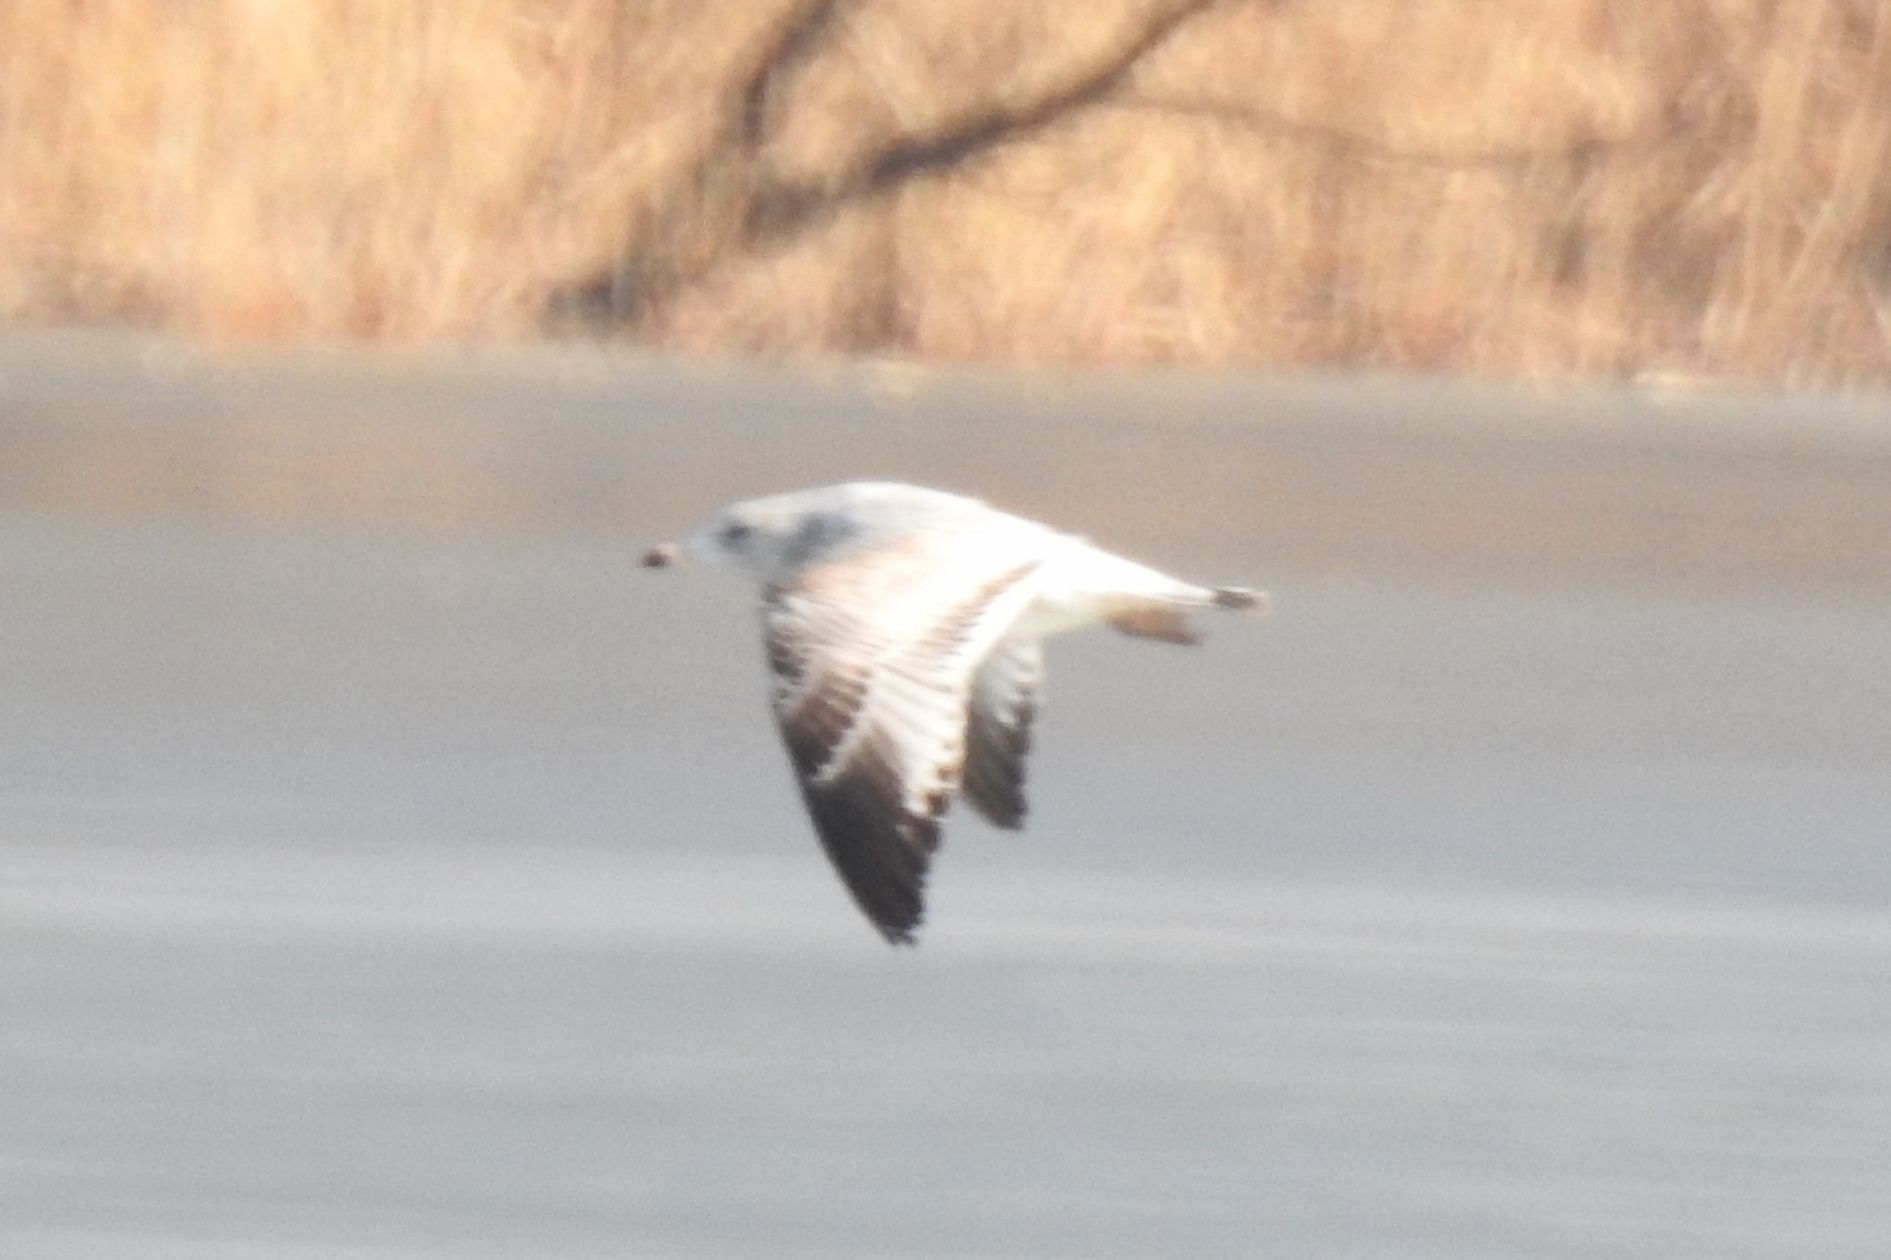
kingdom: Animalia
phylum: Chordata
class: Aves
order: Charadriiformes
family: Laridae
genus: Larus
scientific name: Larus delawarensis
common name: Ring-billed gull
